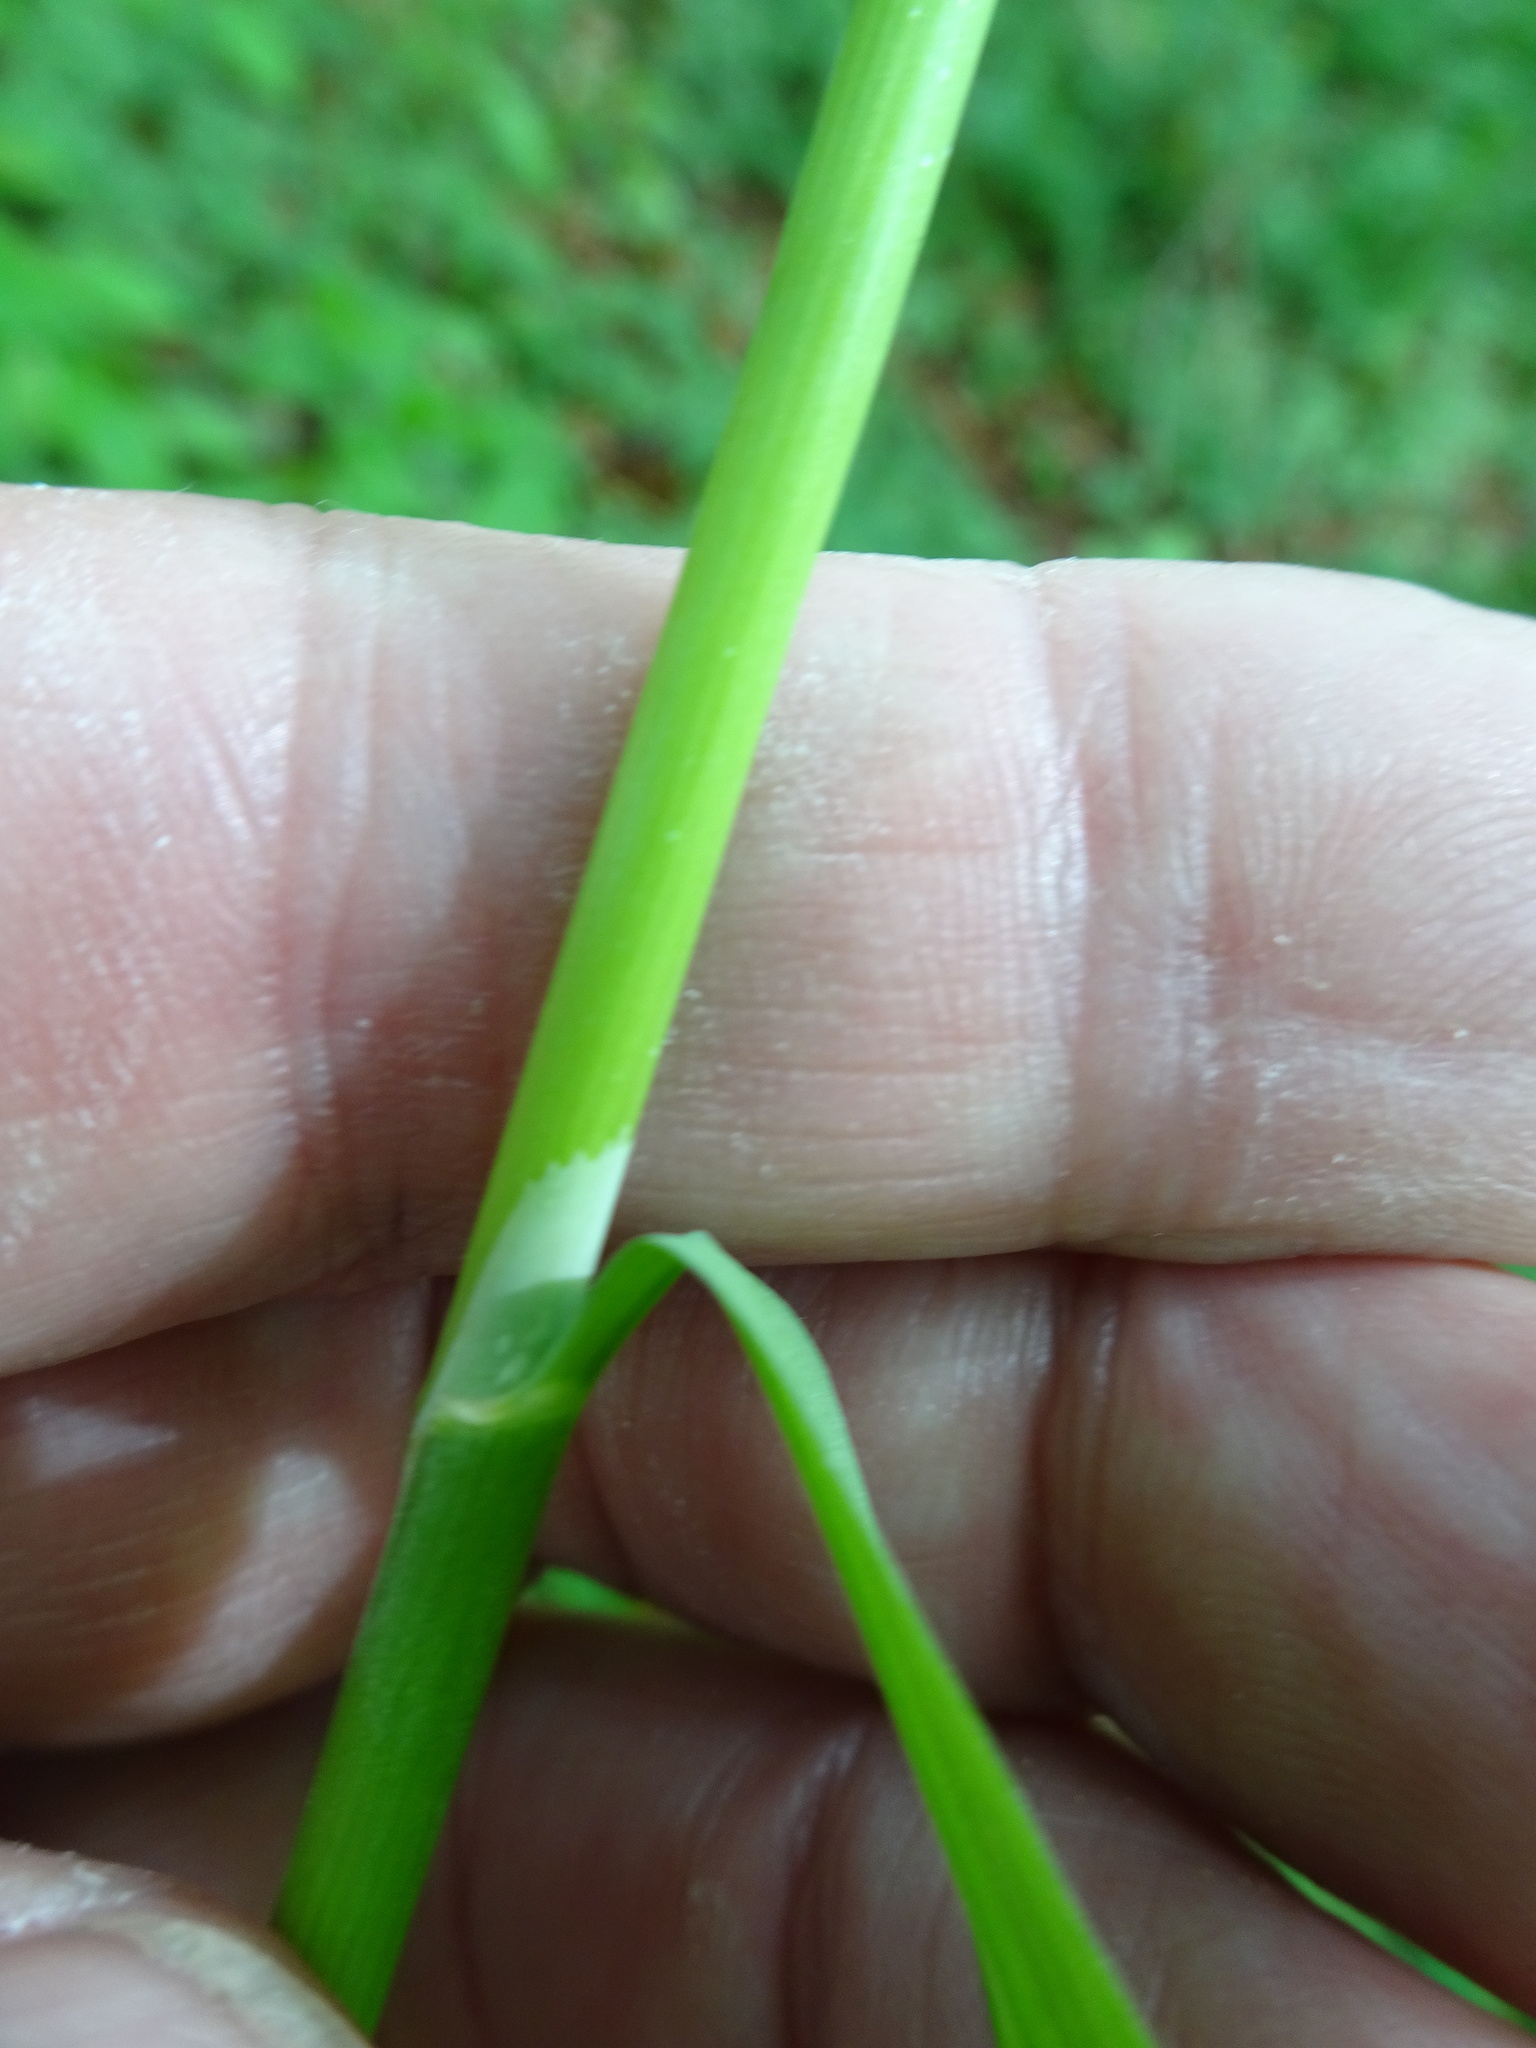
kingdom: Plantae
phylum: Tracheophyta
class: Liliopsida
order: Poales
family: Poaceae
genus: Milium
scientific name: Milium effusum
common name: Wood millet
